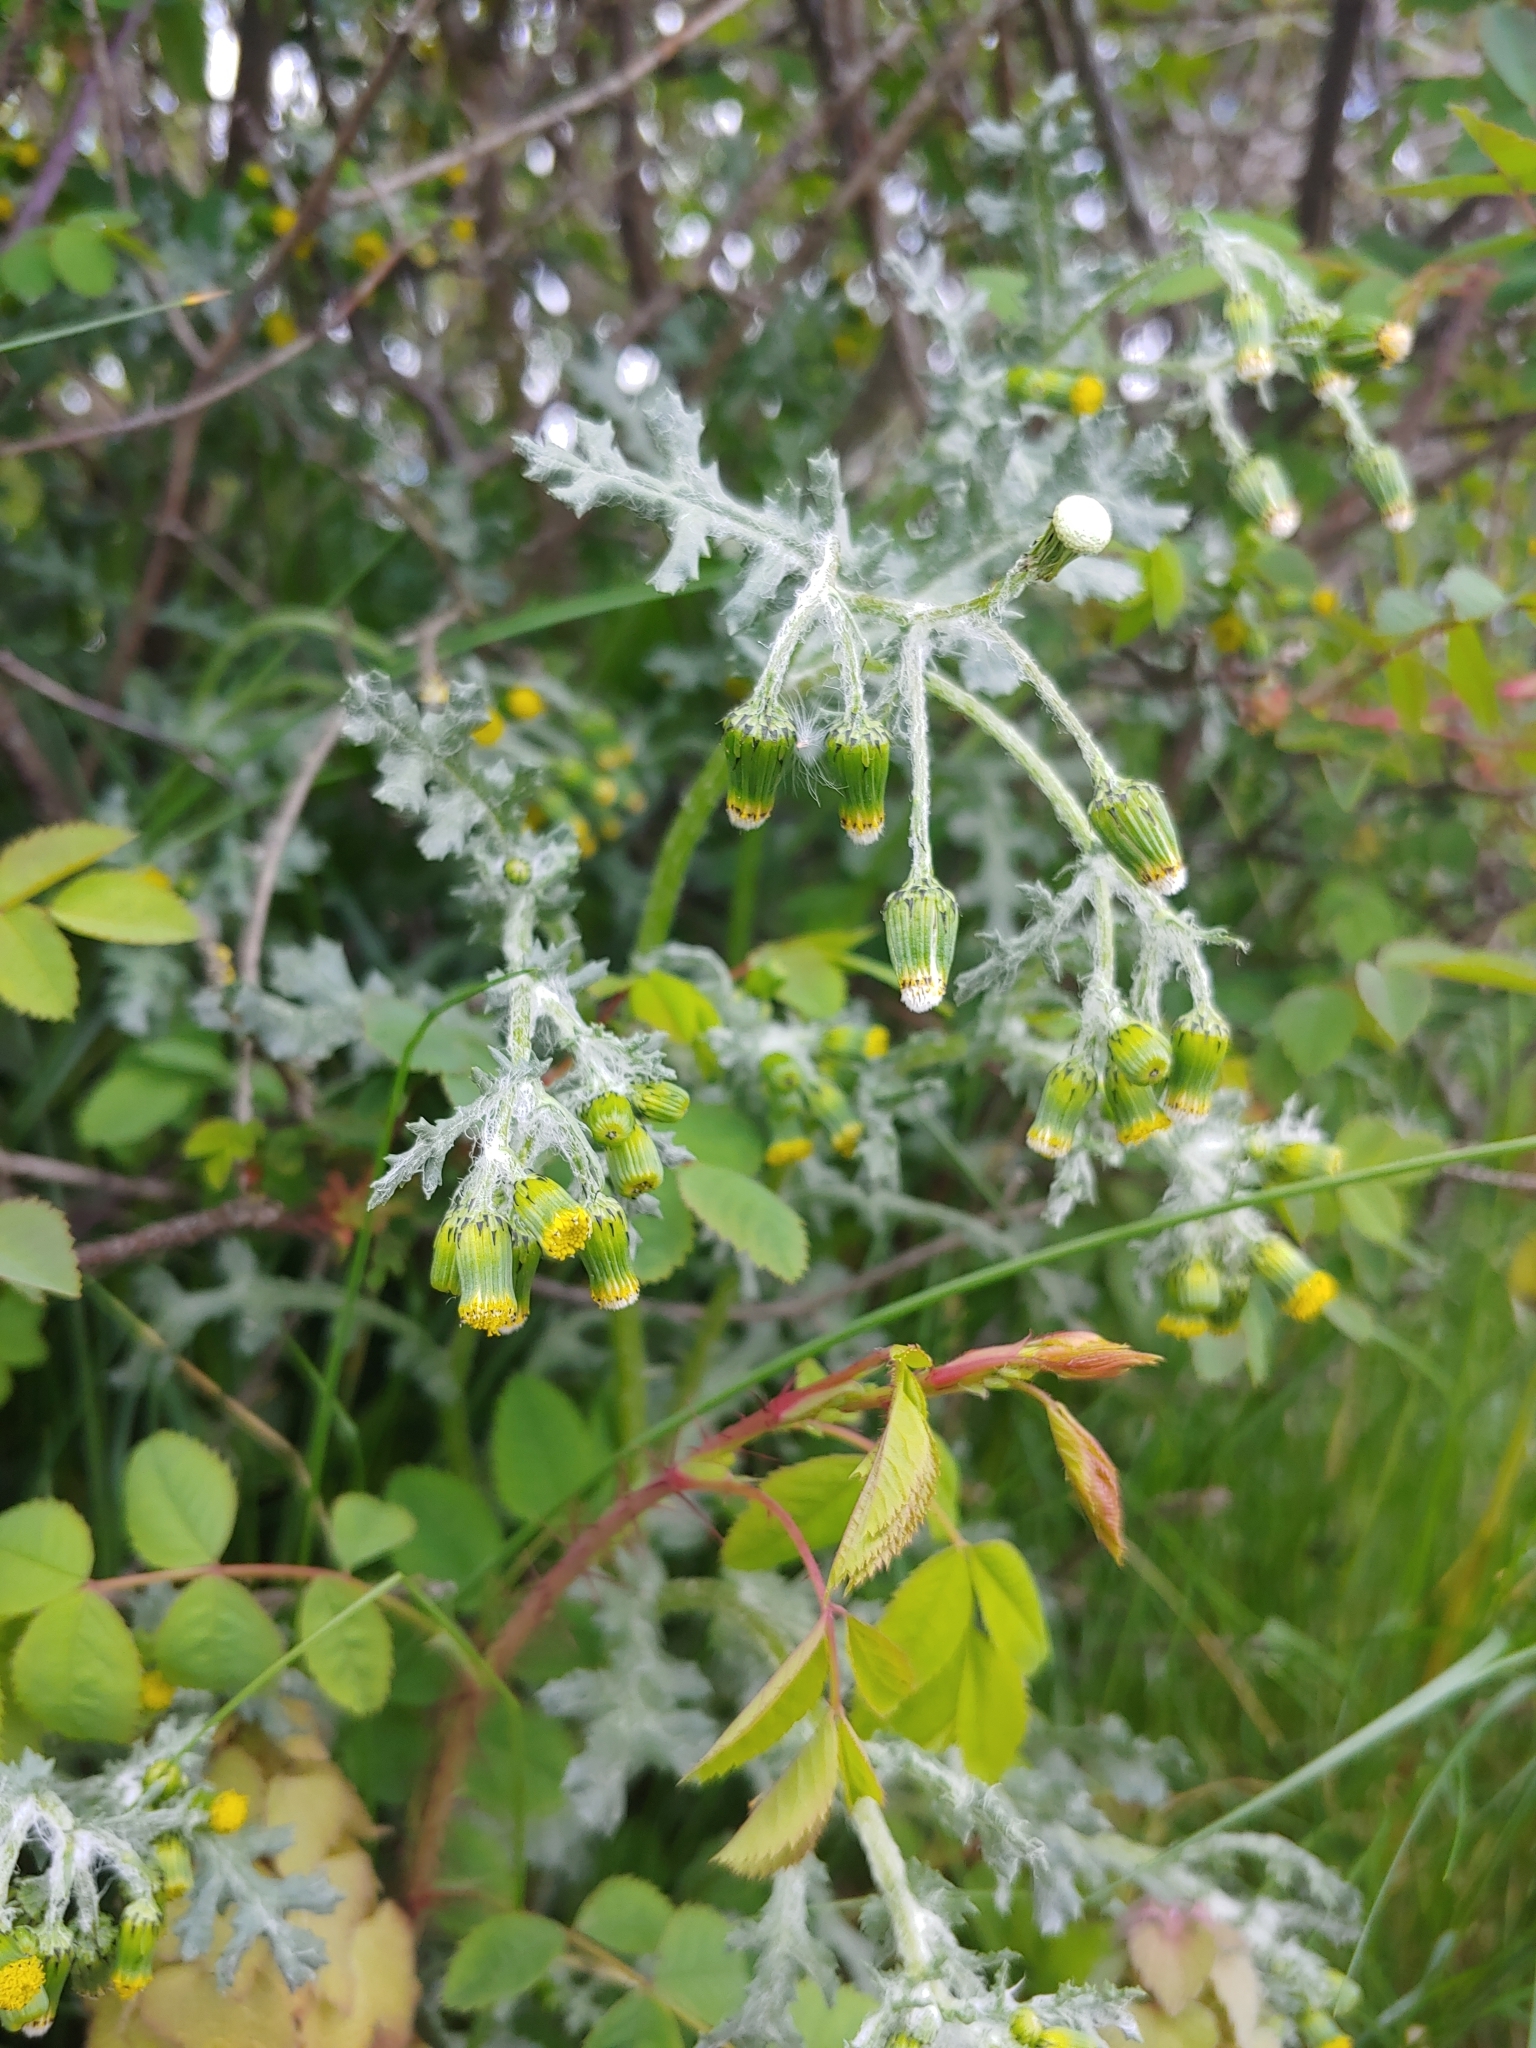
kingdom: Plantae
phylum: Tracheophyta
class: Magnoliopsida
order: Asterales
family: Asteraceae
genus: Senecio
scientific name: Senecio vulgaris
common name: Old-man-in-the-spring
